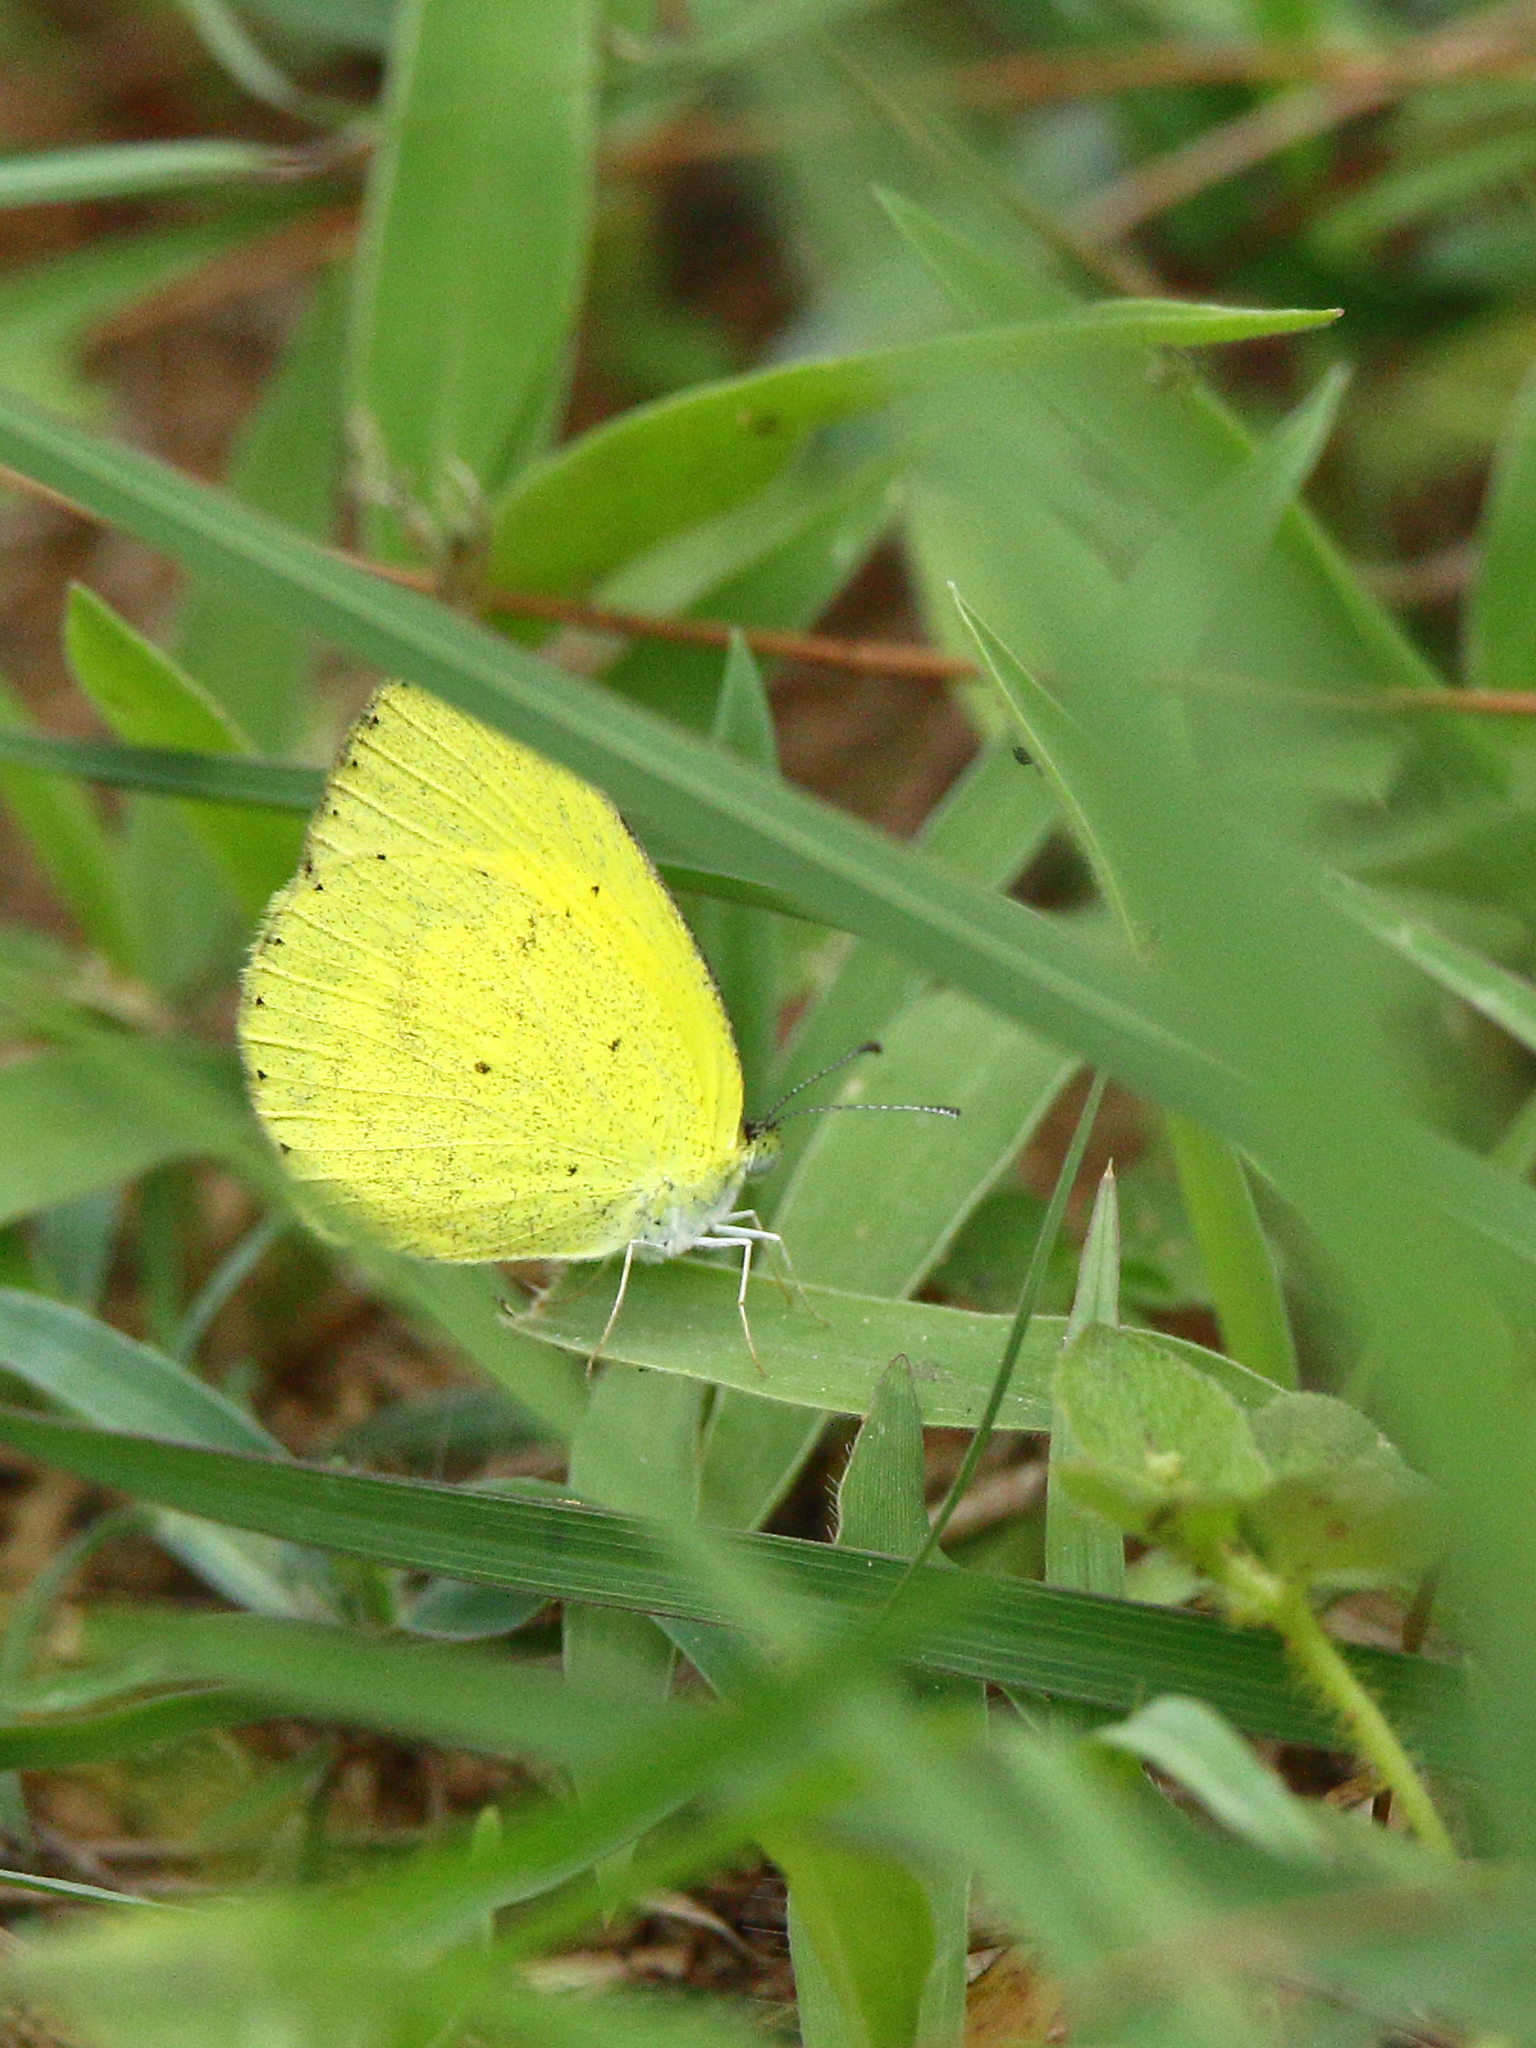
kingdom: Animalia
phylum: Arthropoda
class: Insecta
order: Lepidoptera
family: Pieridae
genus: Eurema
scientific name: Eurema brigitta
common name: Small grass yellow
